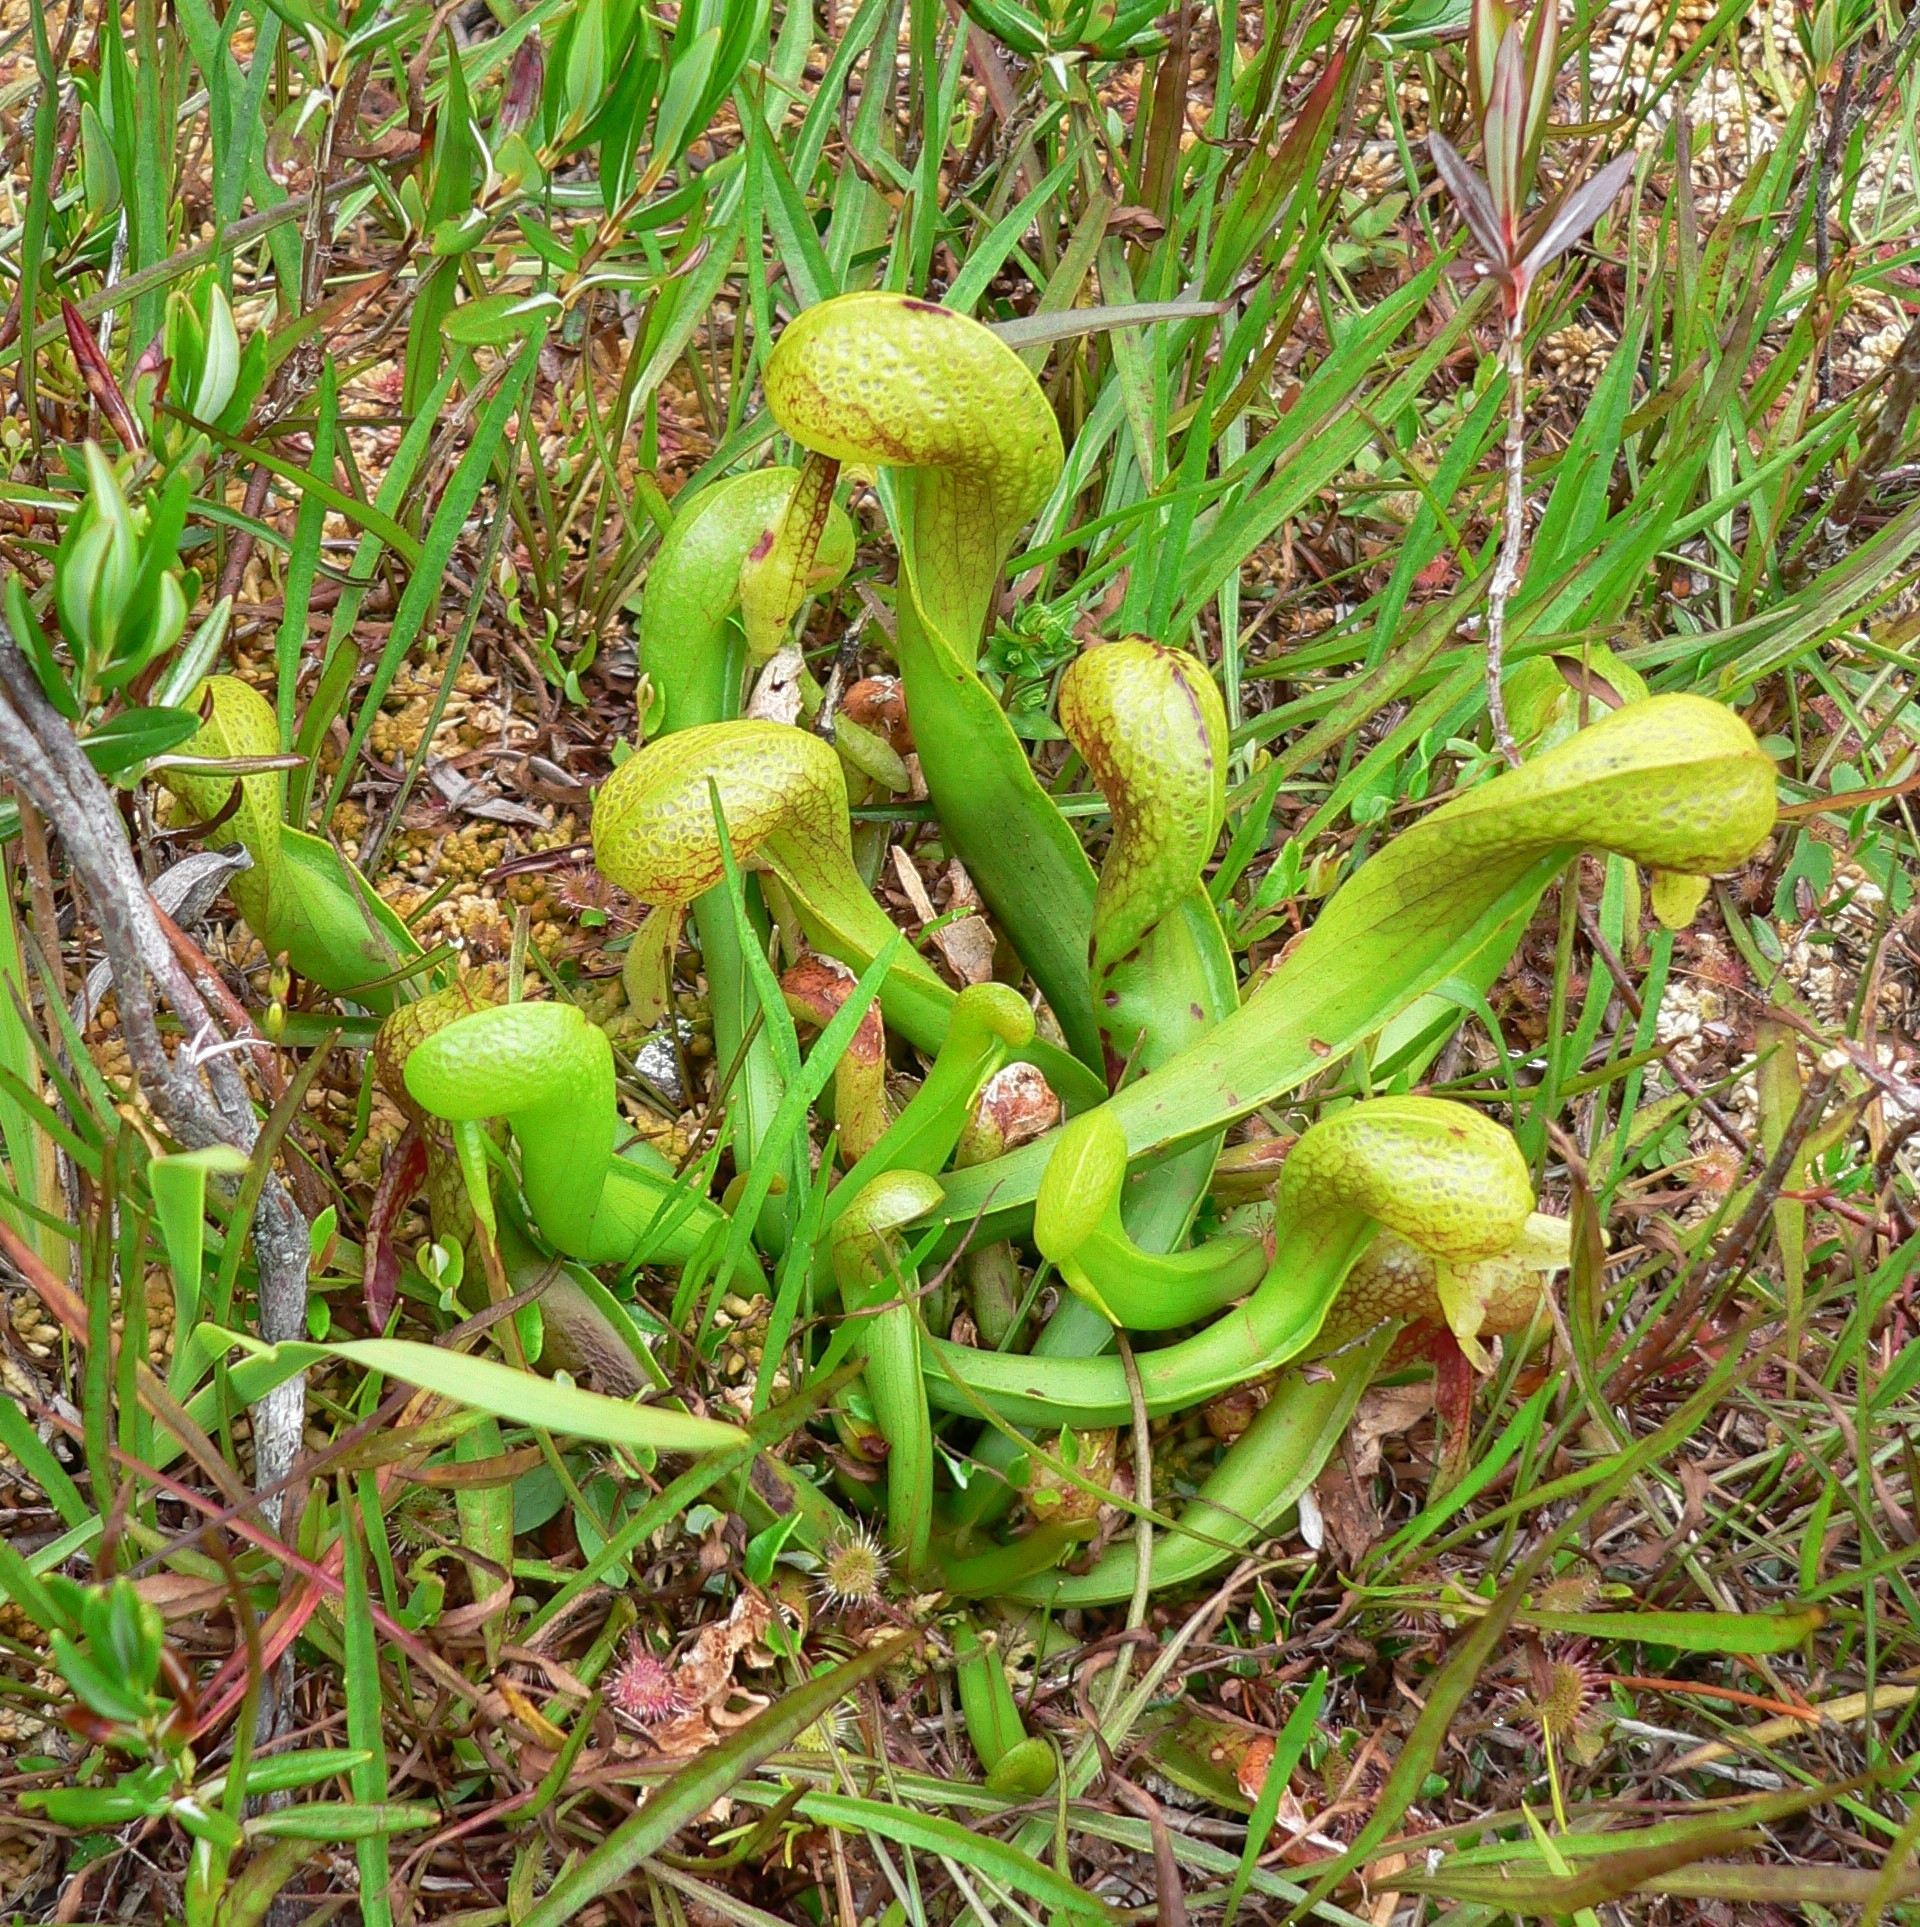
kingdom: Plantae
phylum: Tracheophyta
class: Magnoliopsida
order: Ericales
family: Sarraceniaceae
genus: Darlingtonia
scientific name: Darlingtonia californica
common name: California pitcher plant
